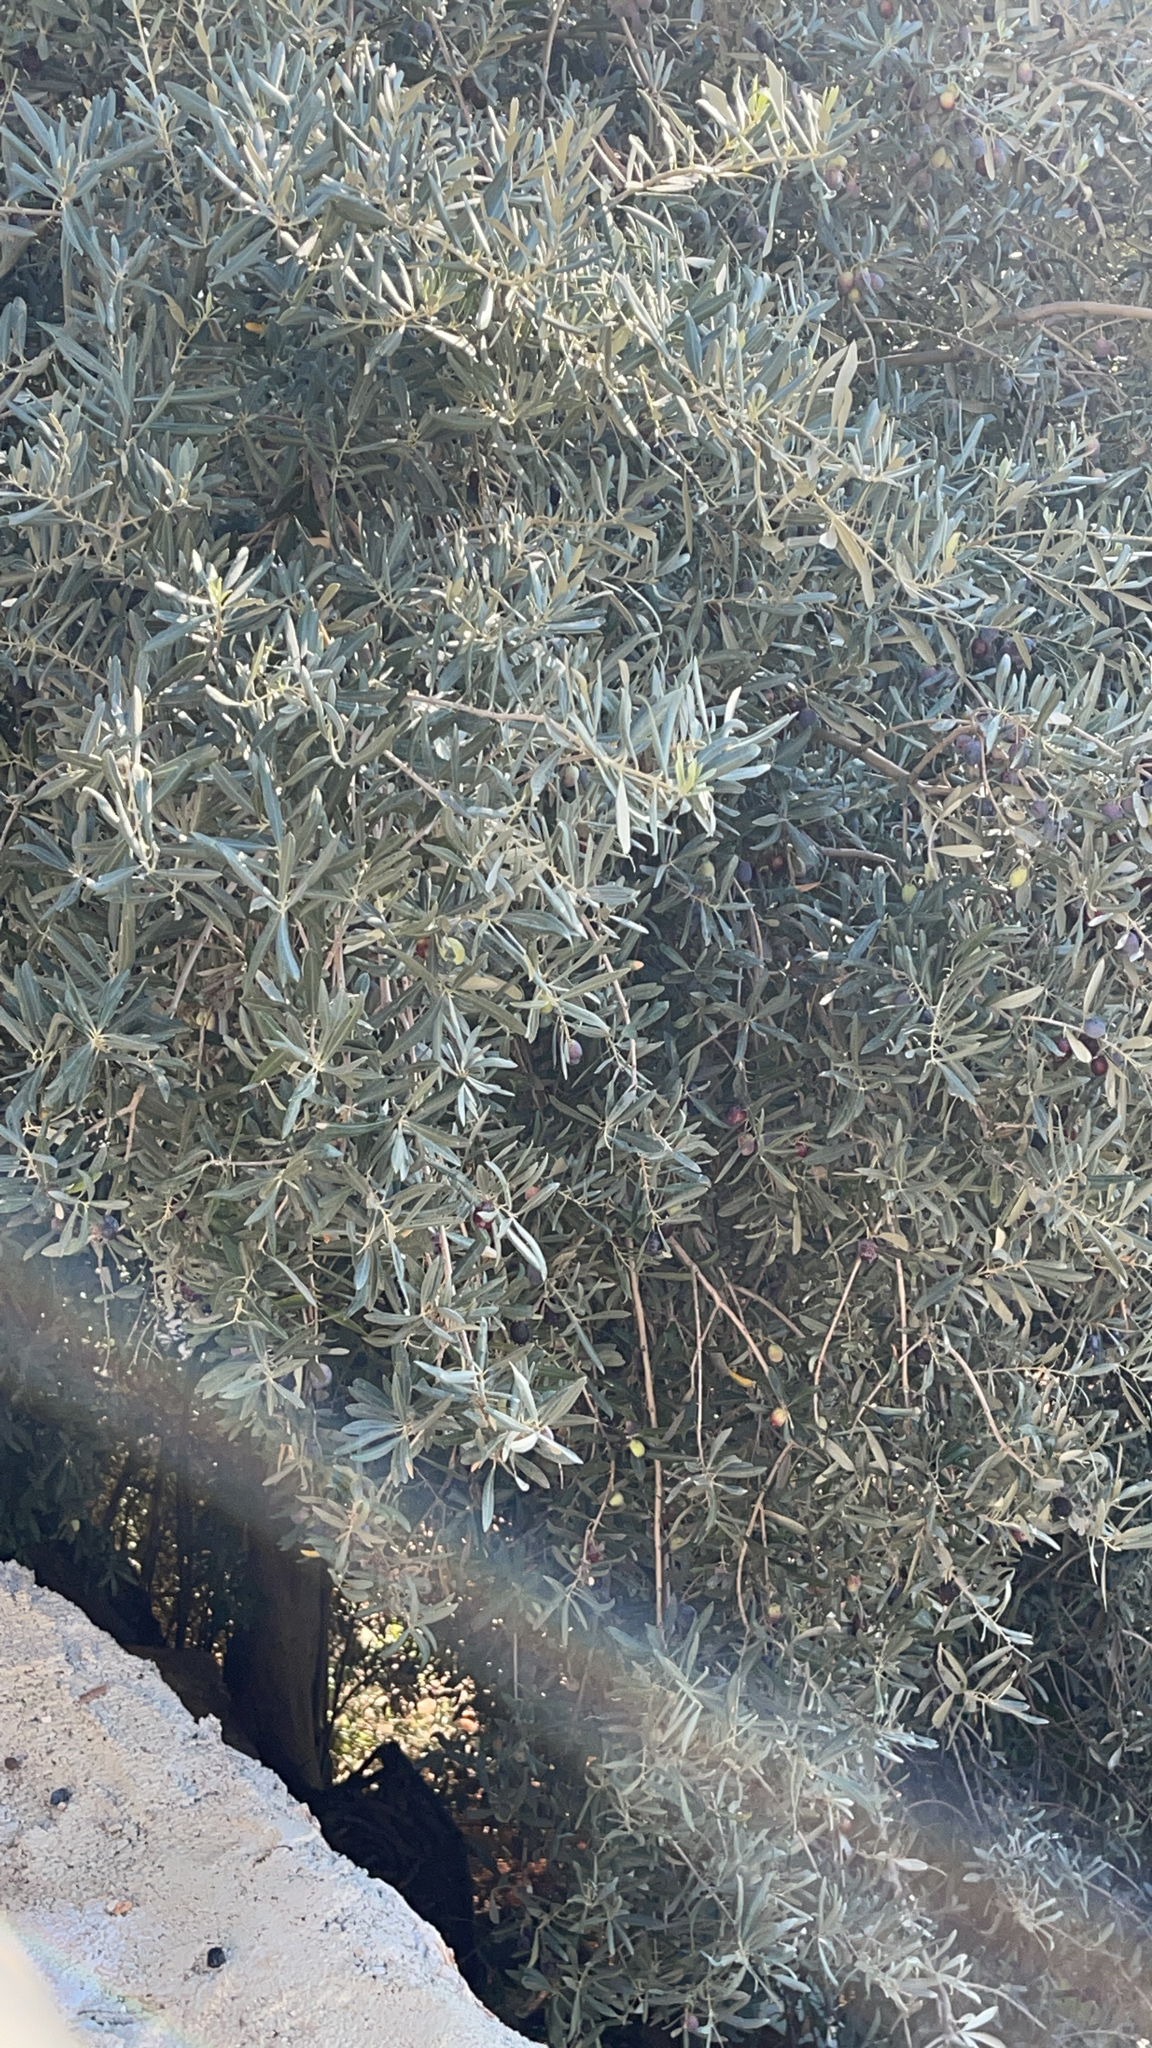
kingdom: Plantae
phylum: Tracheophyta
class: Magnoliopsida
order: Lamiales
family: Oleaceae
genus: Olea
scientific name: Olea europaea
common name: Olive
